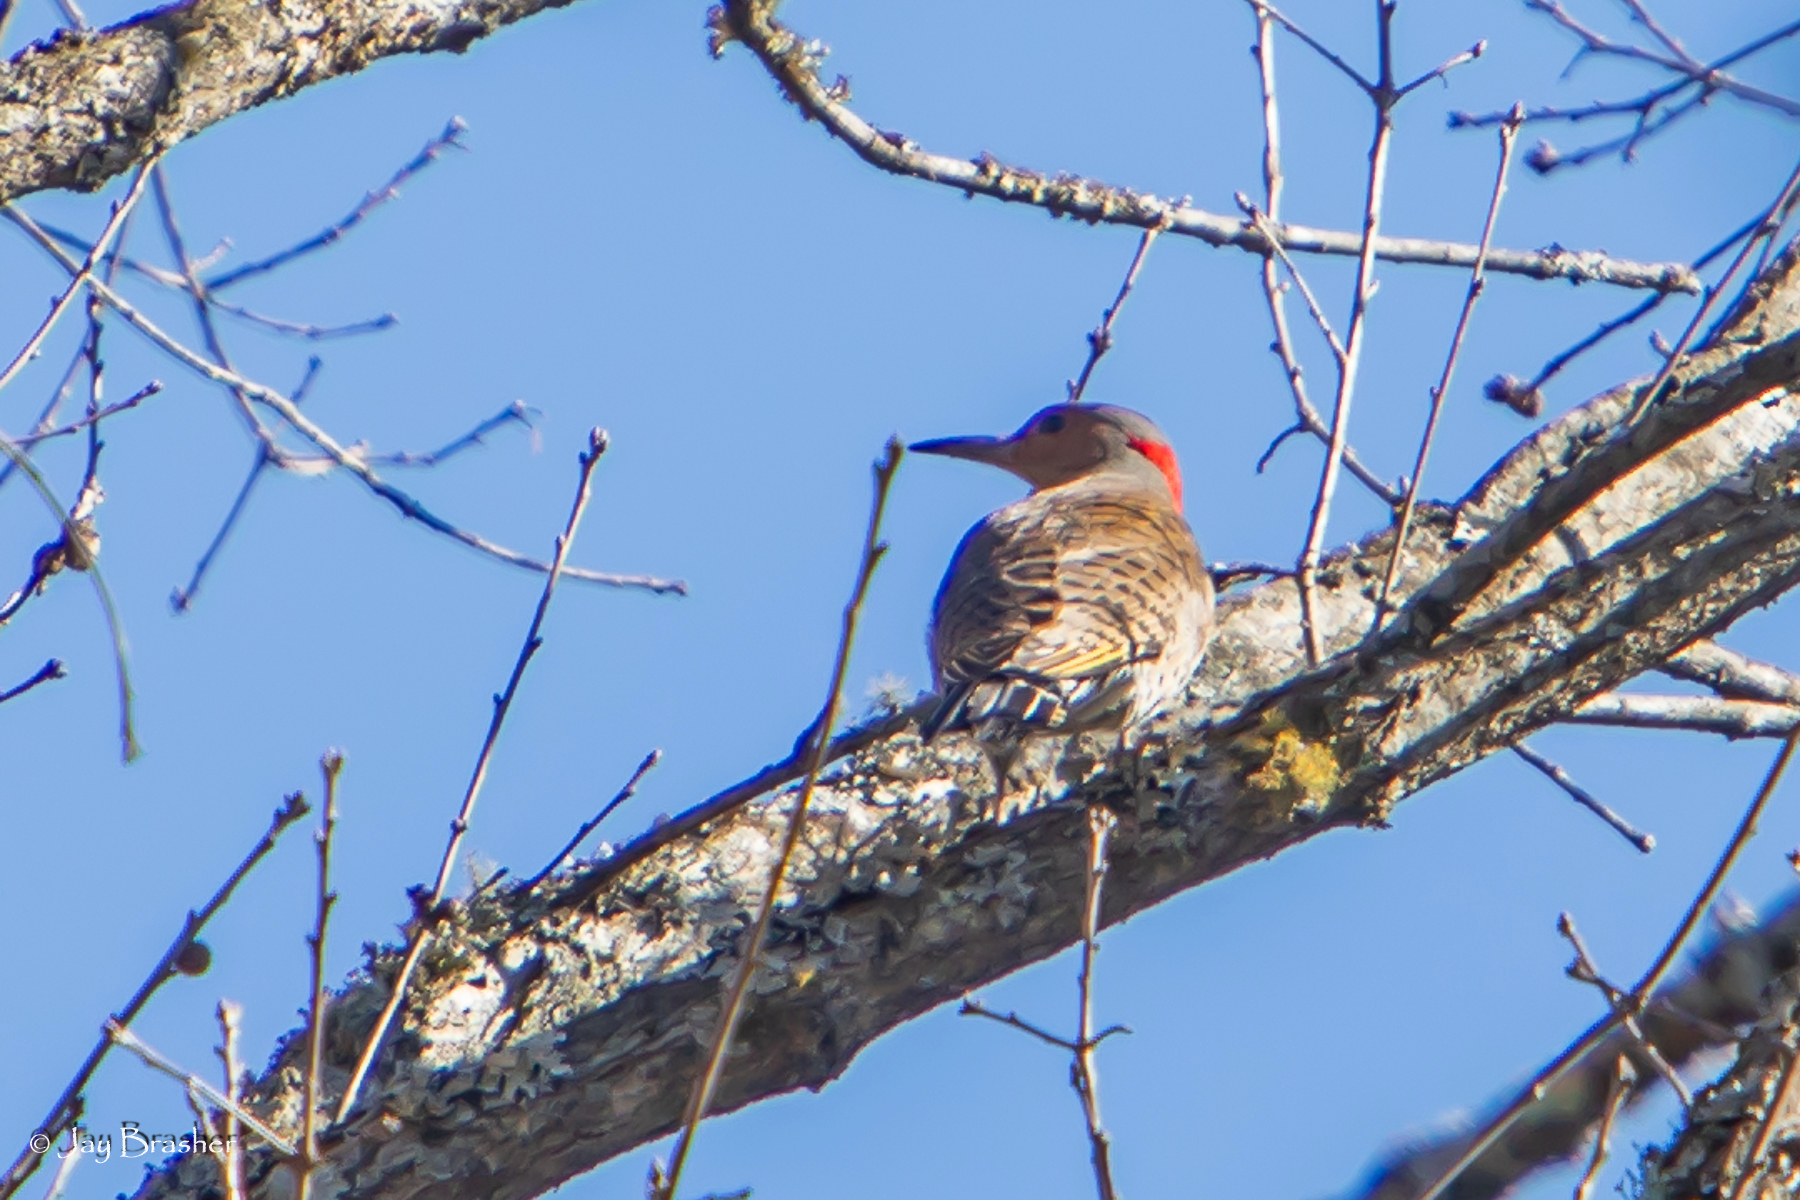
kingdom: Animalia
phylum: Chordata
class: Aves
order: Piciformes
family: Picidae
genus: Colaptes
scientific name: Colaptes auratus
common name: Northern flicker
